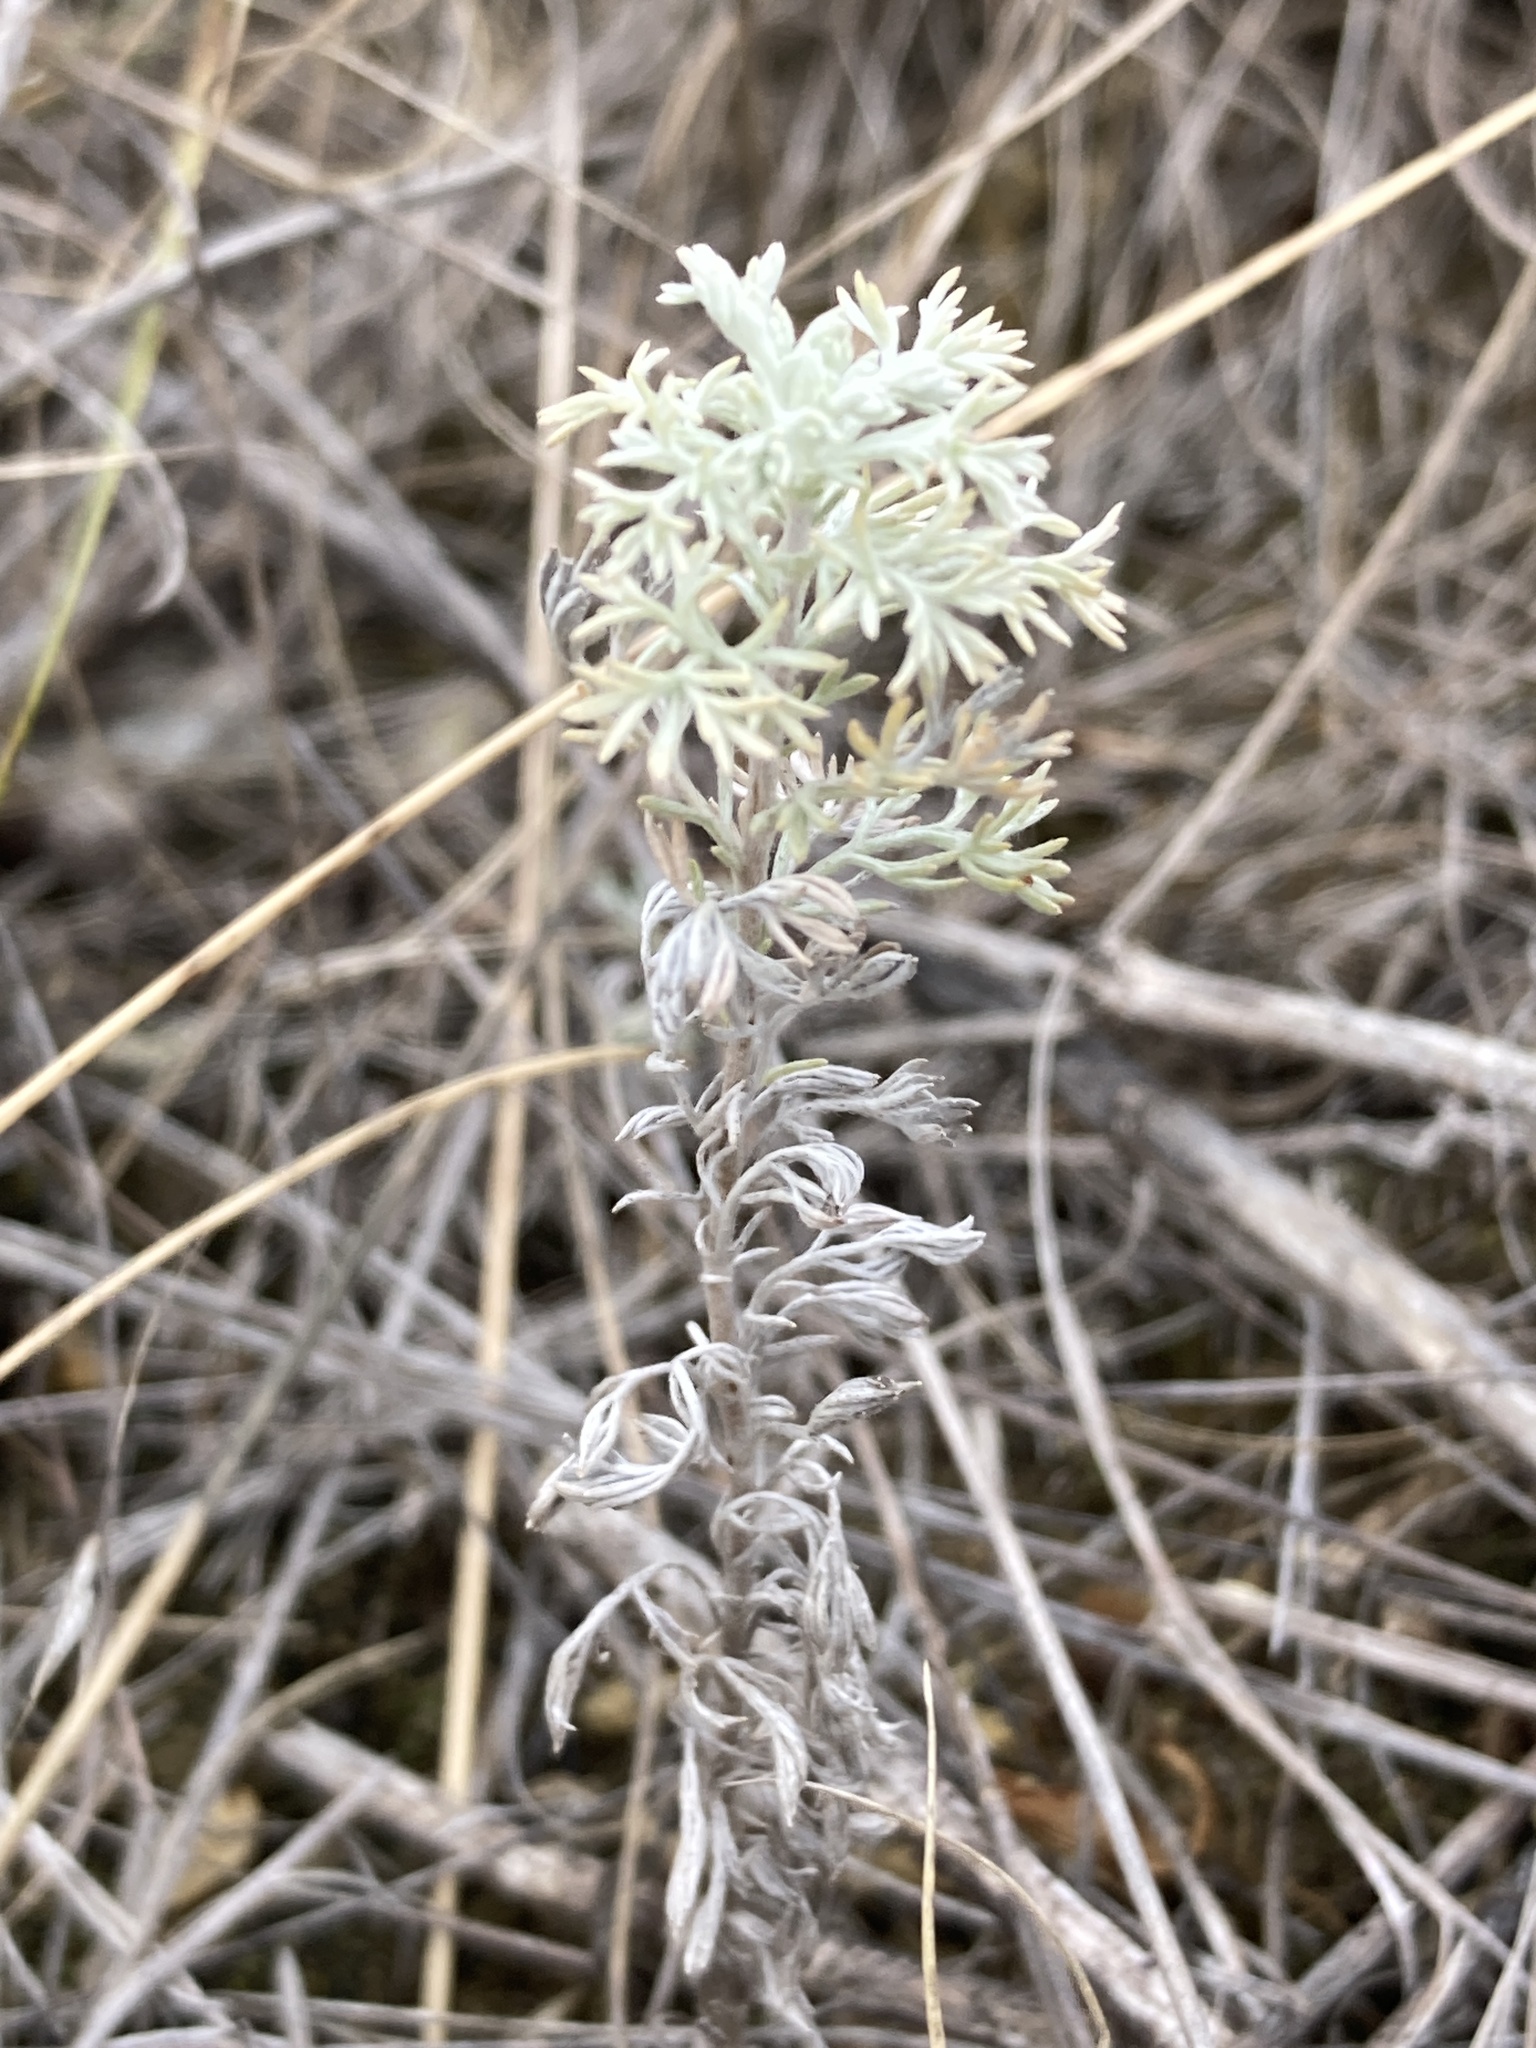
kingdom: Plantae
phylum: Tracheophyta
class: Magnoliopsida
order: Asterales
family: Asteraceae
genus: Artemisia
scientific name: Artemisia austriaca
